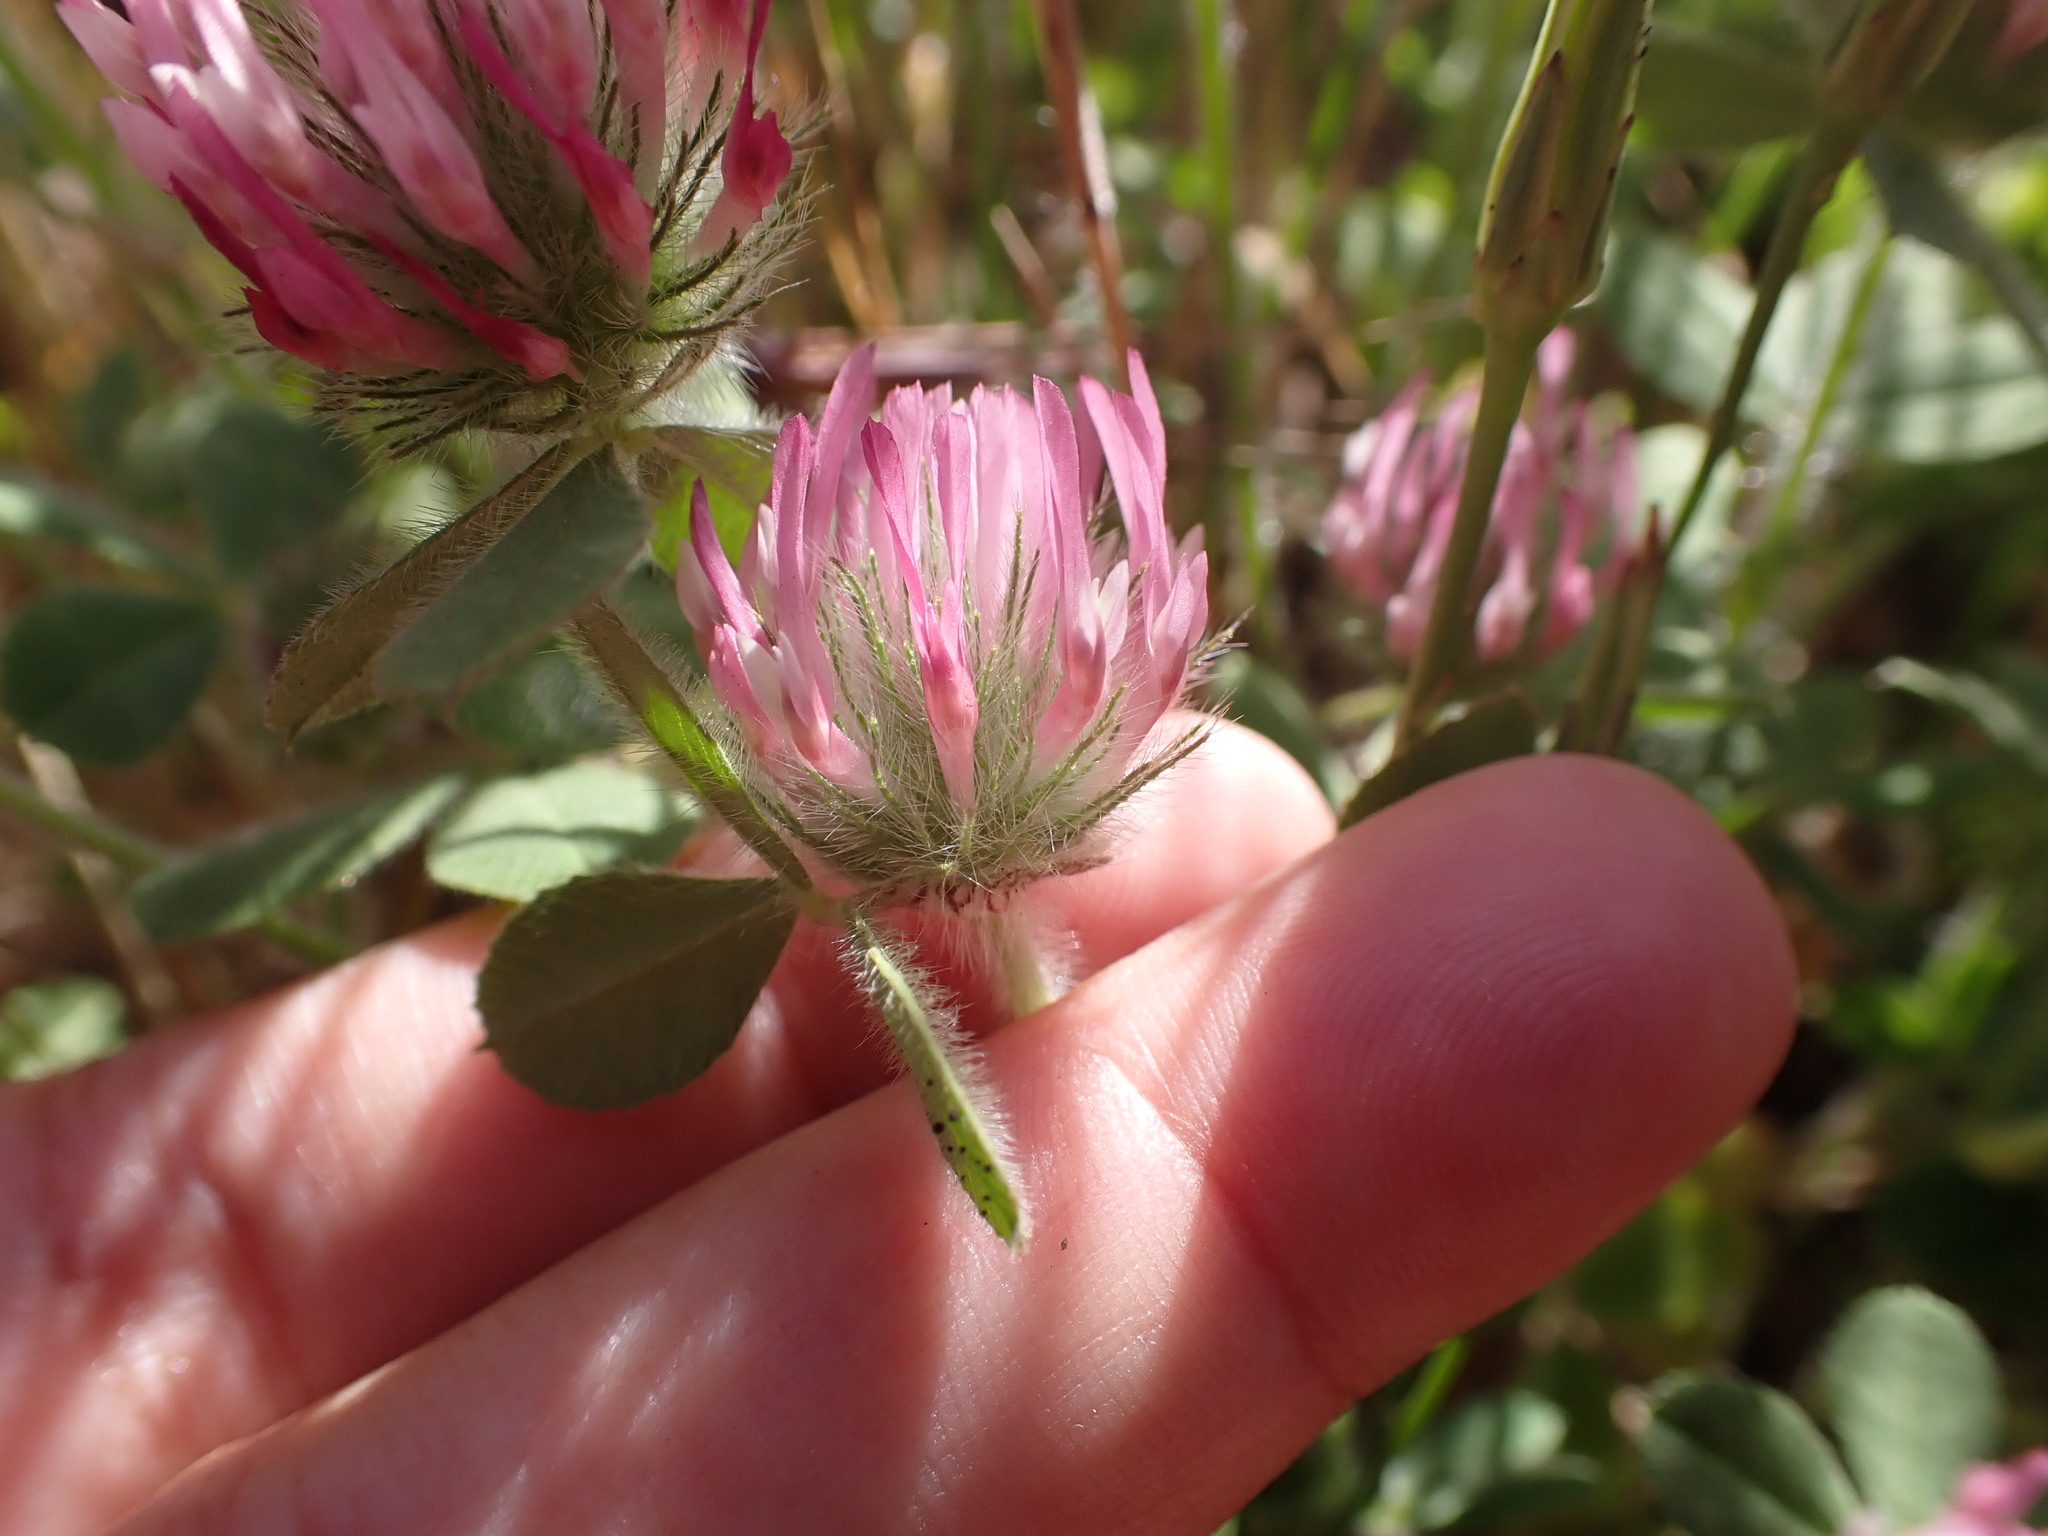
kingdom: Plantae
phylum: Tracheophyta
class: Magnoliopsida
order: Fabales
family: Fabaceae
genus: Trifolium
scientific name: Trifolium hirtum
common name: Rose clover
